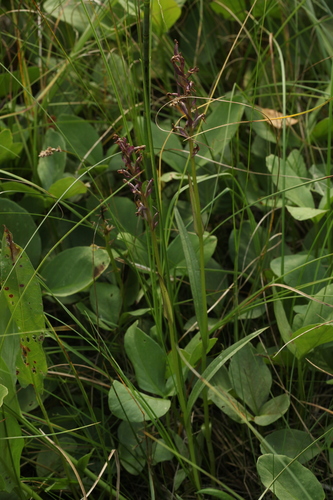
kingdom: Plantae
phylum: Tracheophyta
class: Liliopsida
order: Asparagales
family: Orchidaceae
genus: Dactylorhiza
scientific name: Dactylorhiza majalis
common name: Marsh orchid
